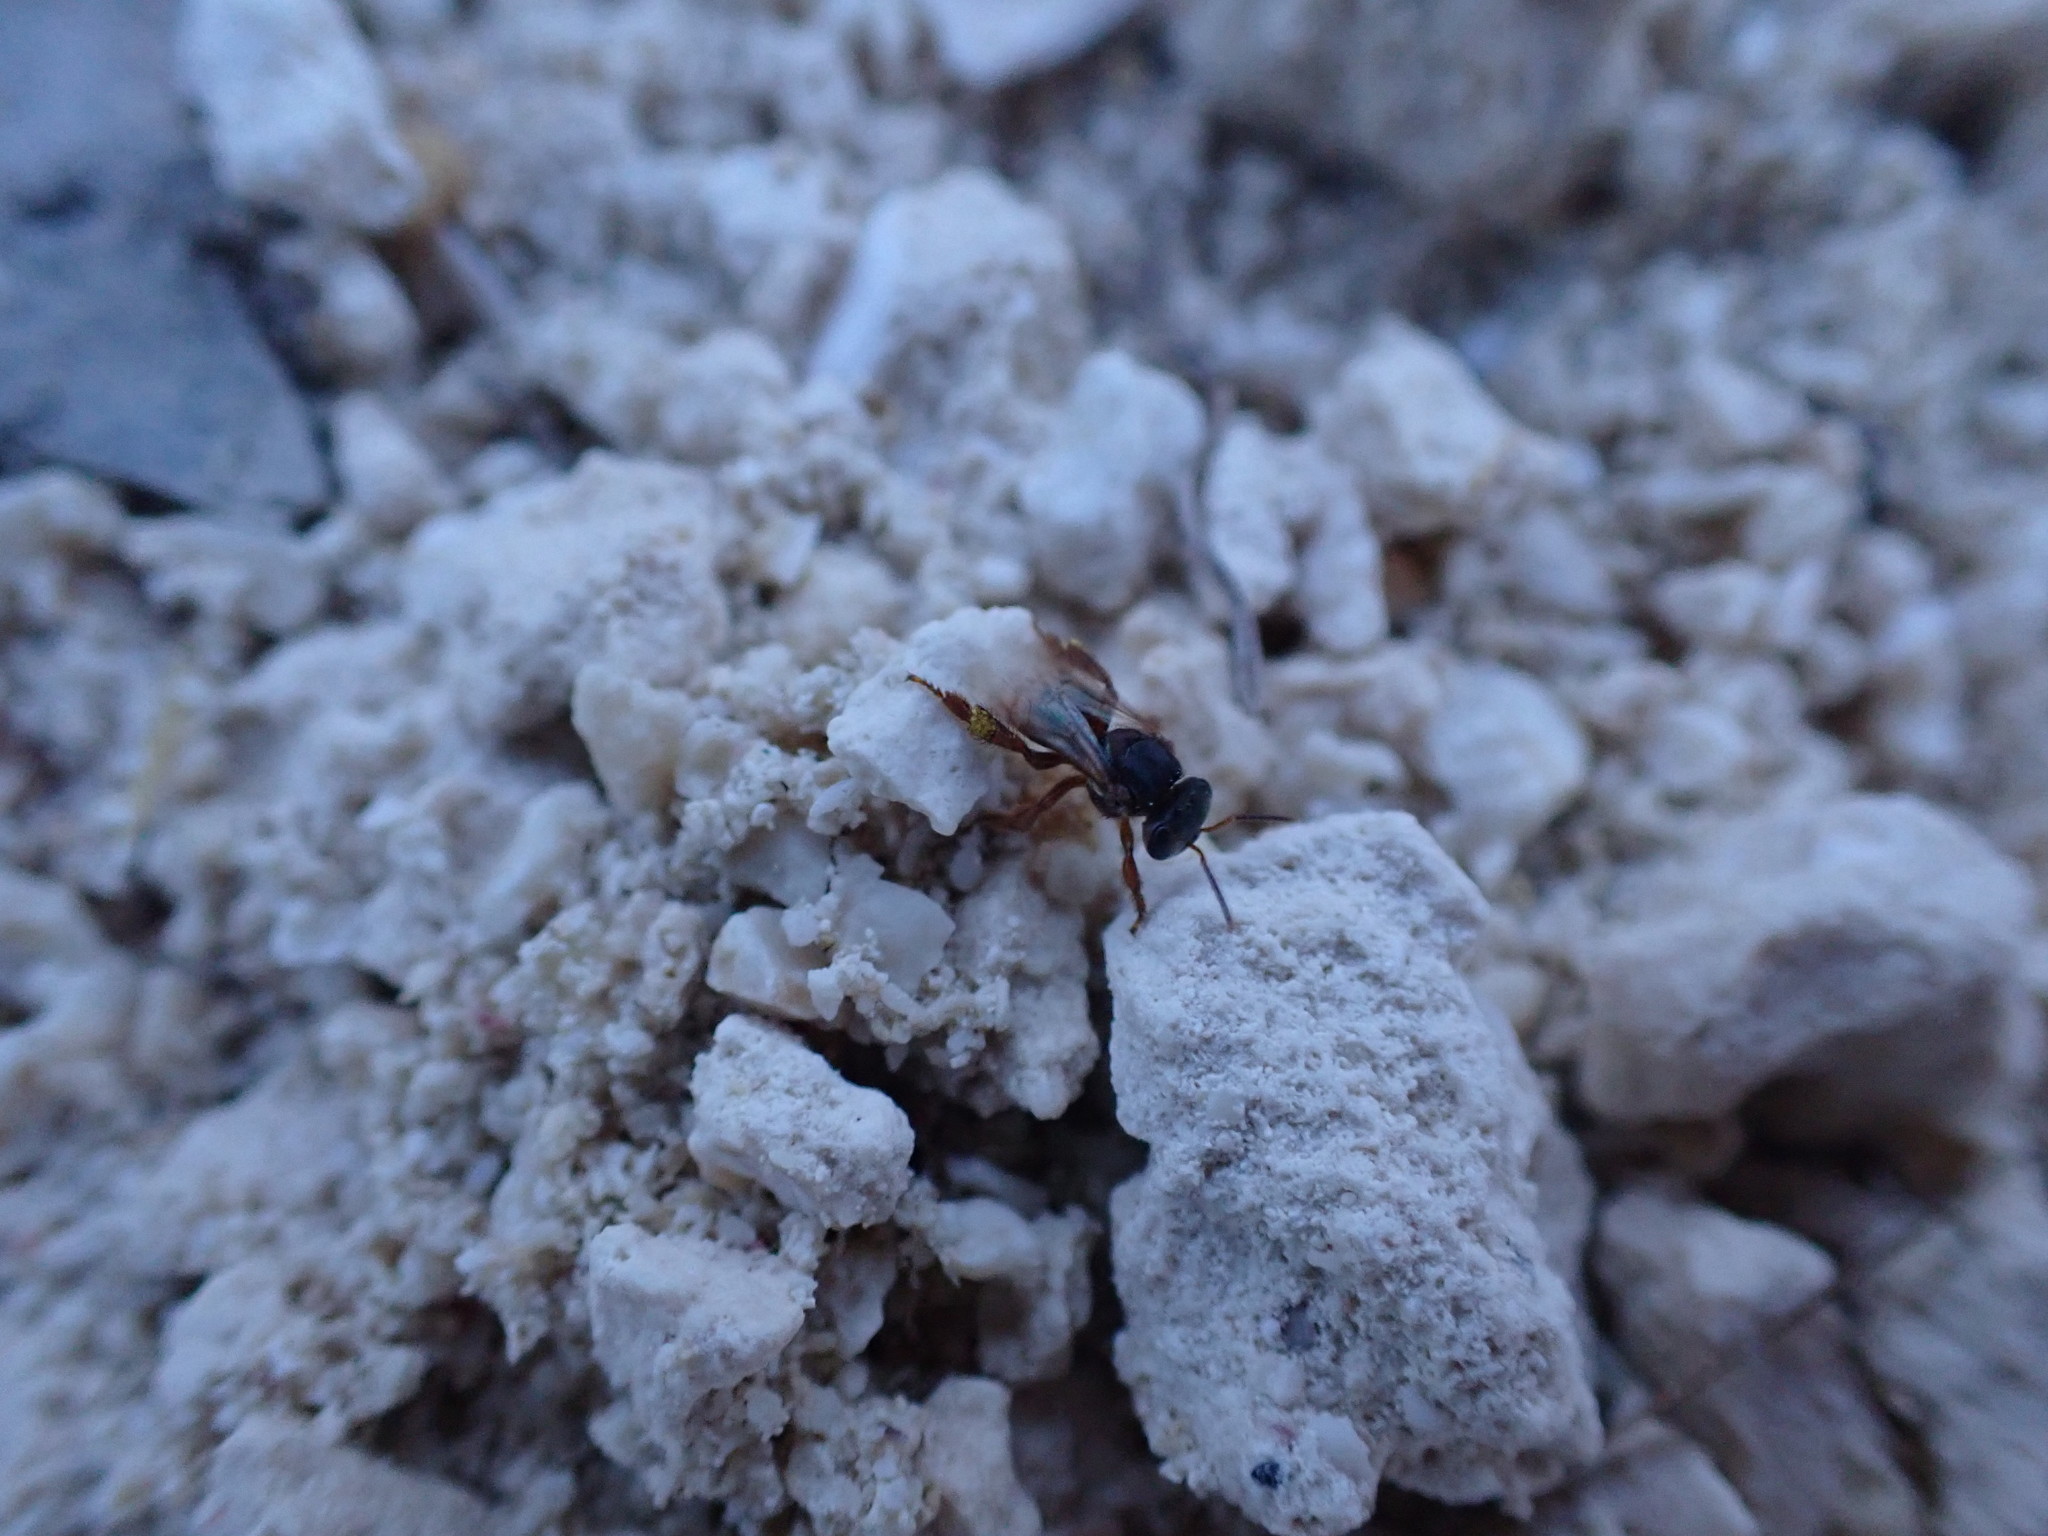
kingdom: Animalia
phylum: Arthropoda
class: Insecta
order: Hymenoptera
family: Apidae
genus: Scaptotrigona
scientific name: Scaptotrigona pectoralis
